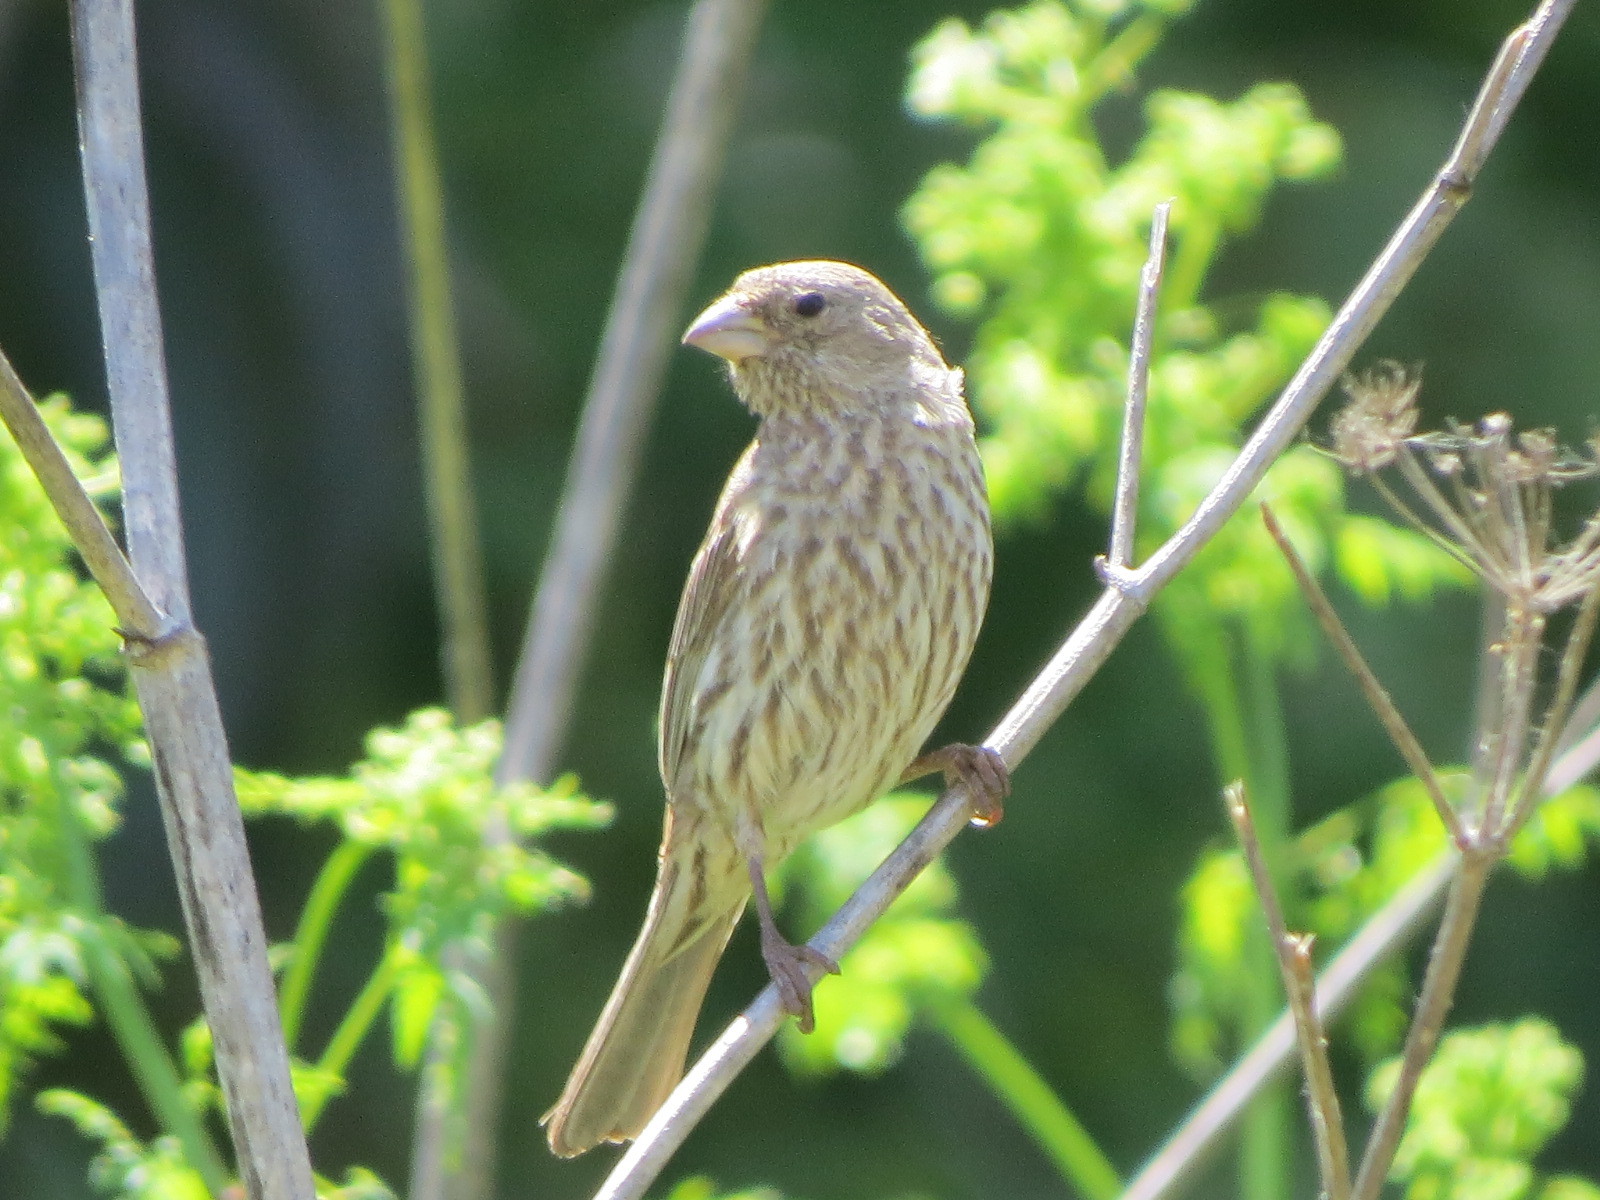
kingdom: Animalia
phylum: Chordata
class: Aves
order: Passeriformes
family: Fringillidae
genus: Haemorhous
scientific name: Haemorhous mexicanus
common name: House finch
